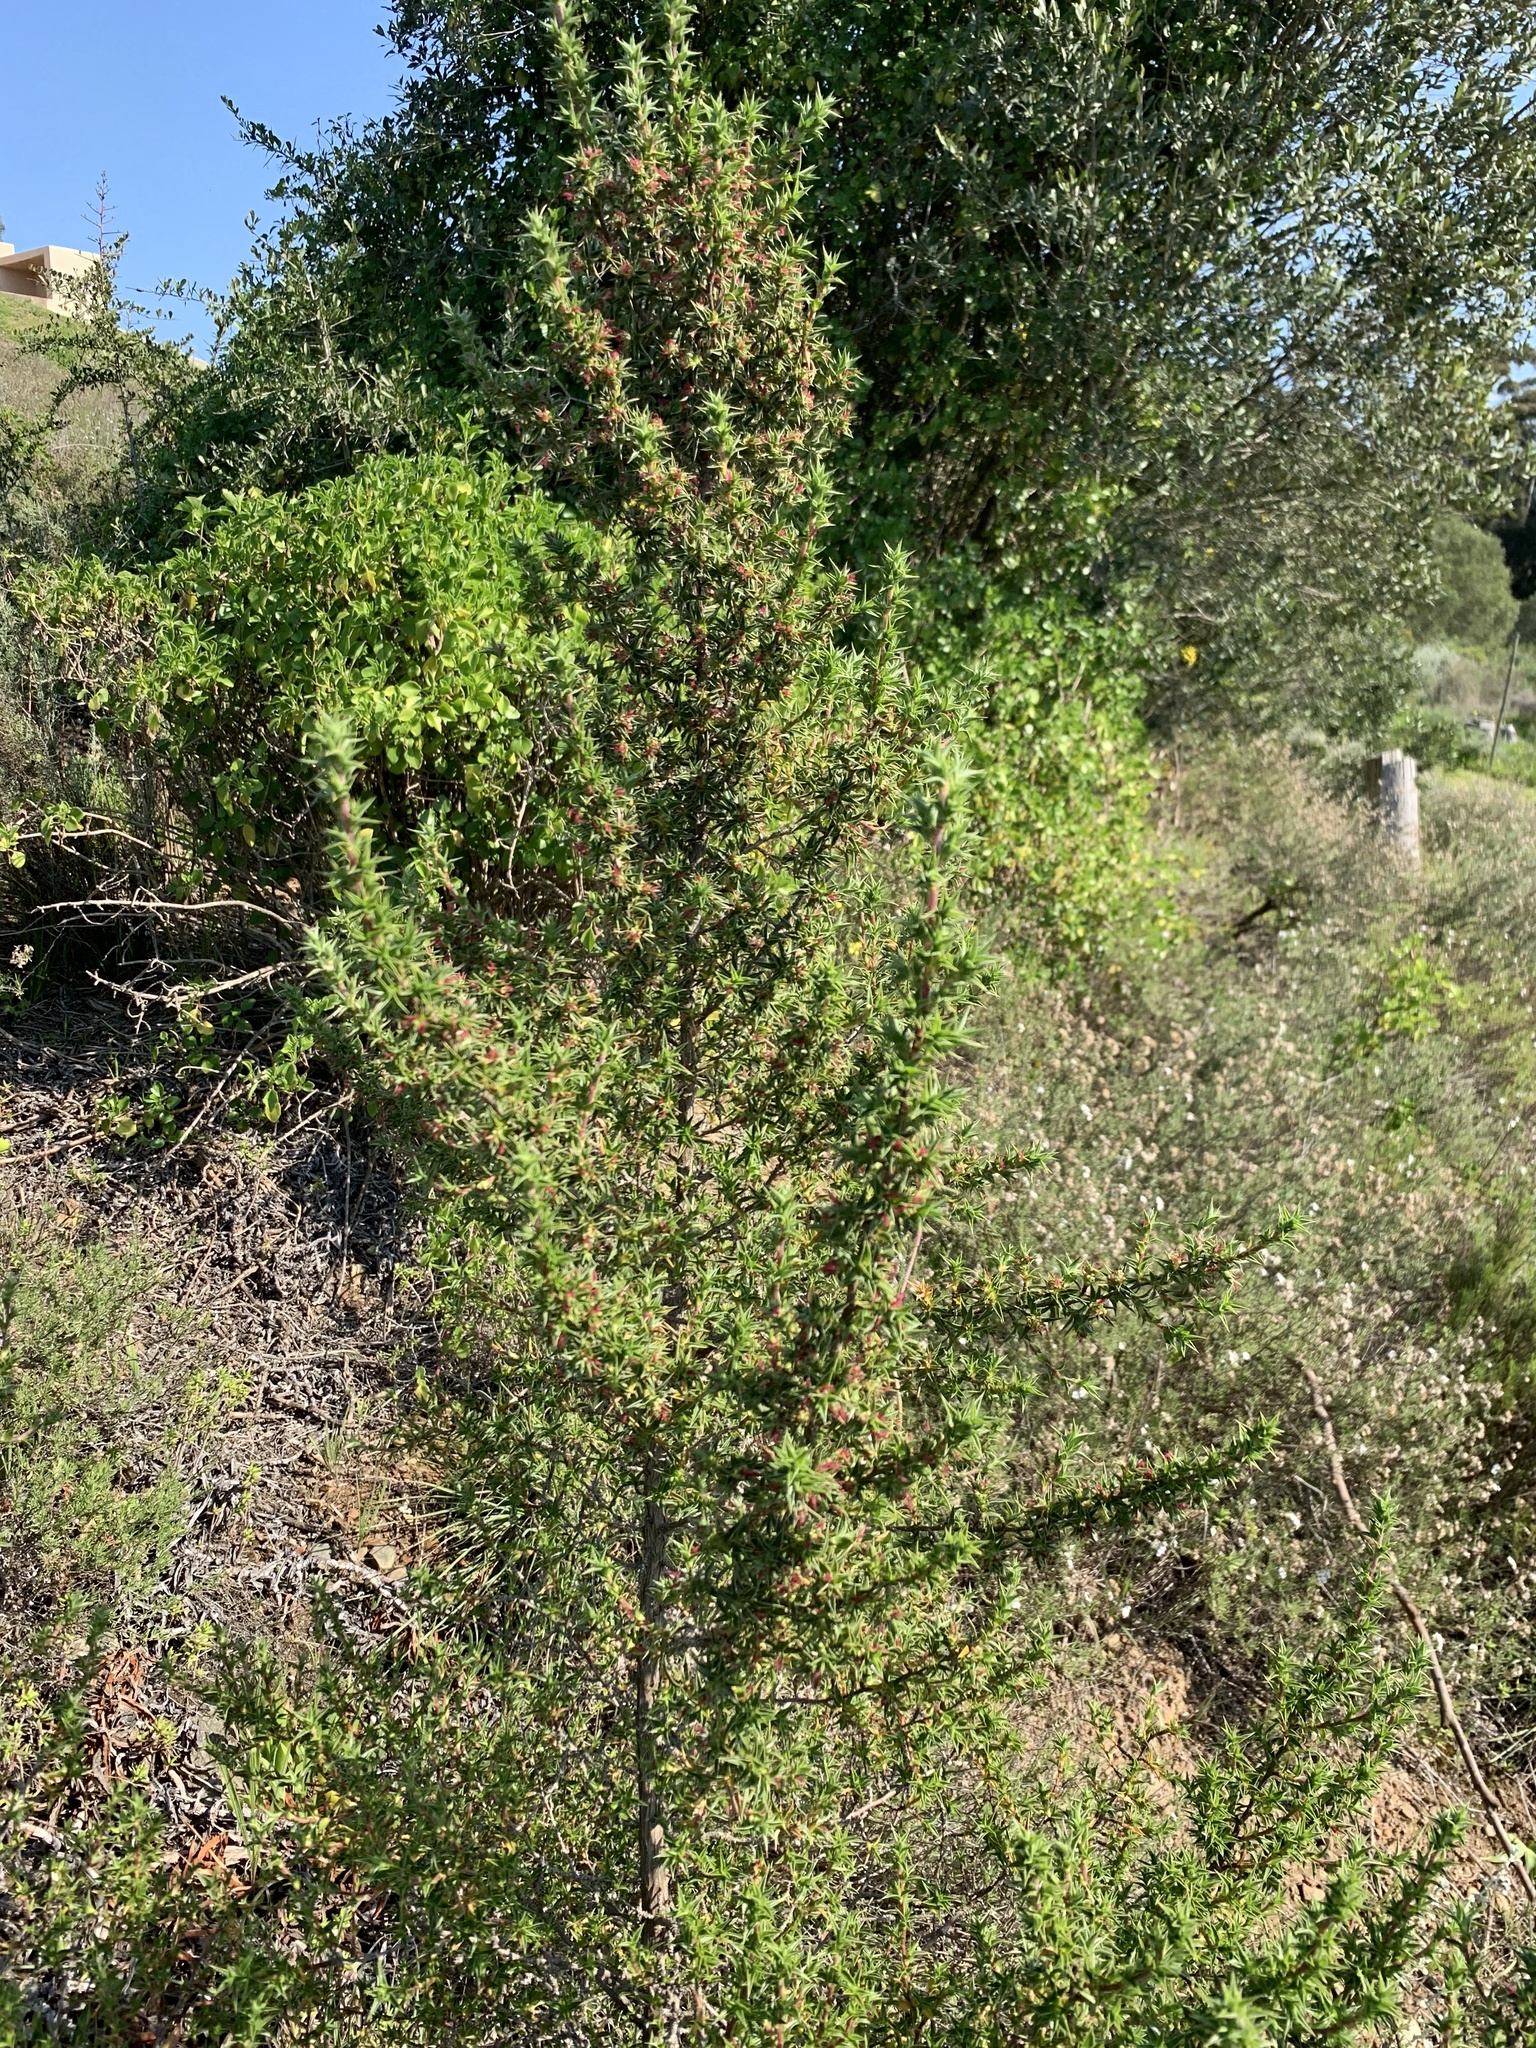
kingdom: Plantae
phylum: Tracheophyta
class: Magnoliopsida
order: Rosales
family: Rosaceae
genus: Cliffortia
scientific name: Cliffortia ruscifolia
